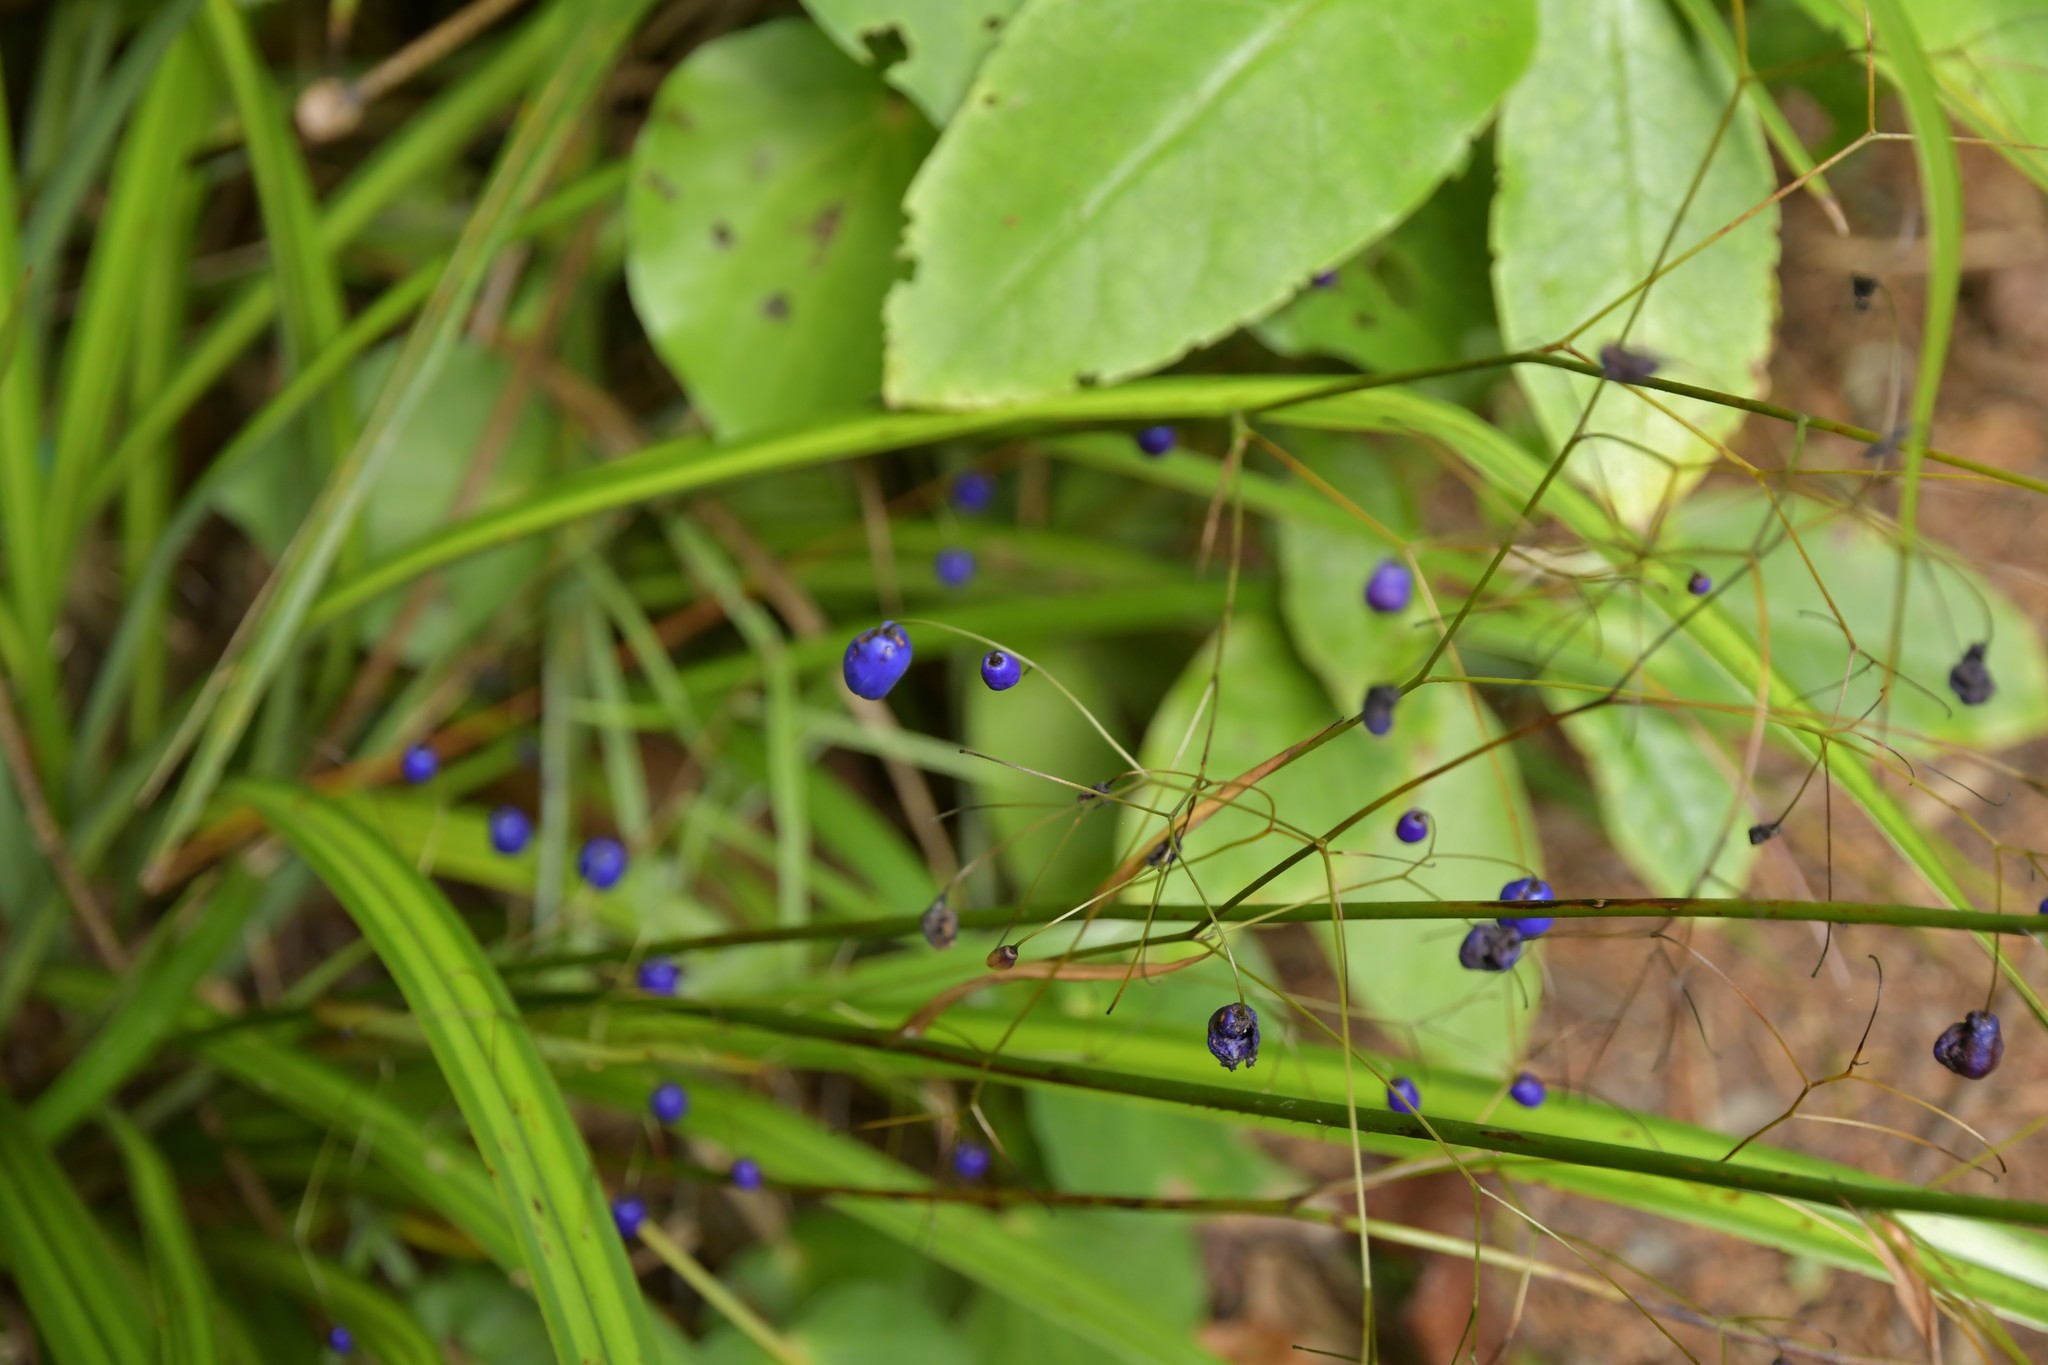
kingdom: Plantae
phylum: Tracheophyta
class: Liliopsida
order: Asparagales
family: Asphodelaceae
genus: Dianella
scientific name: Dianella nigra
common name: New zealand-blueberry
